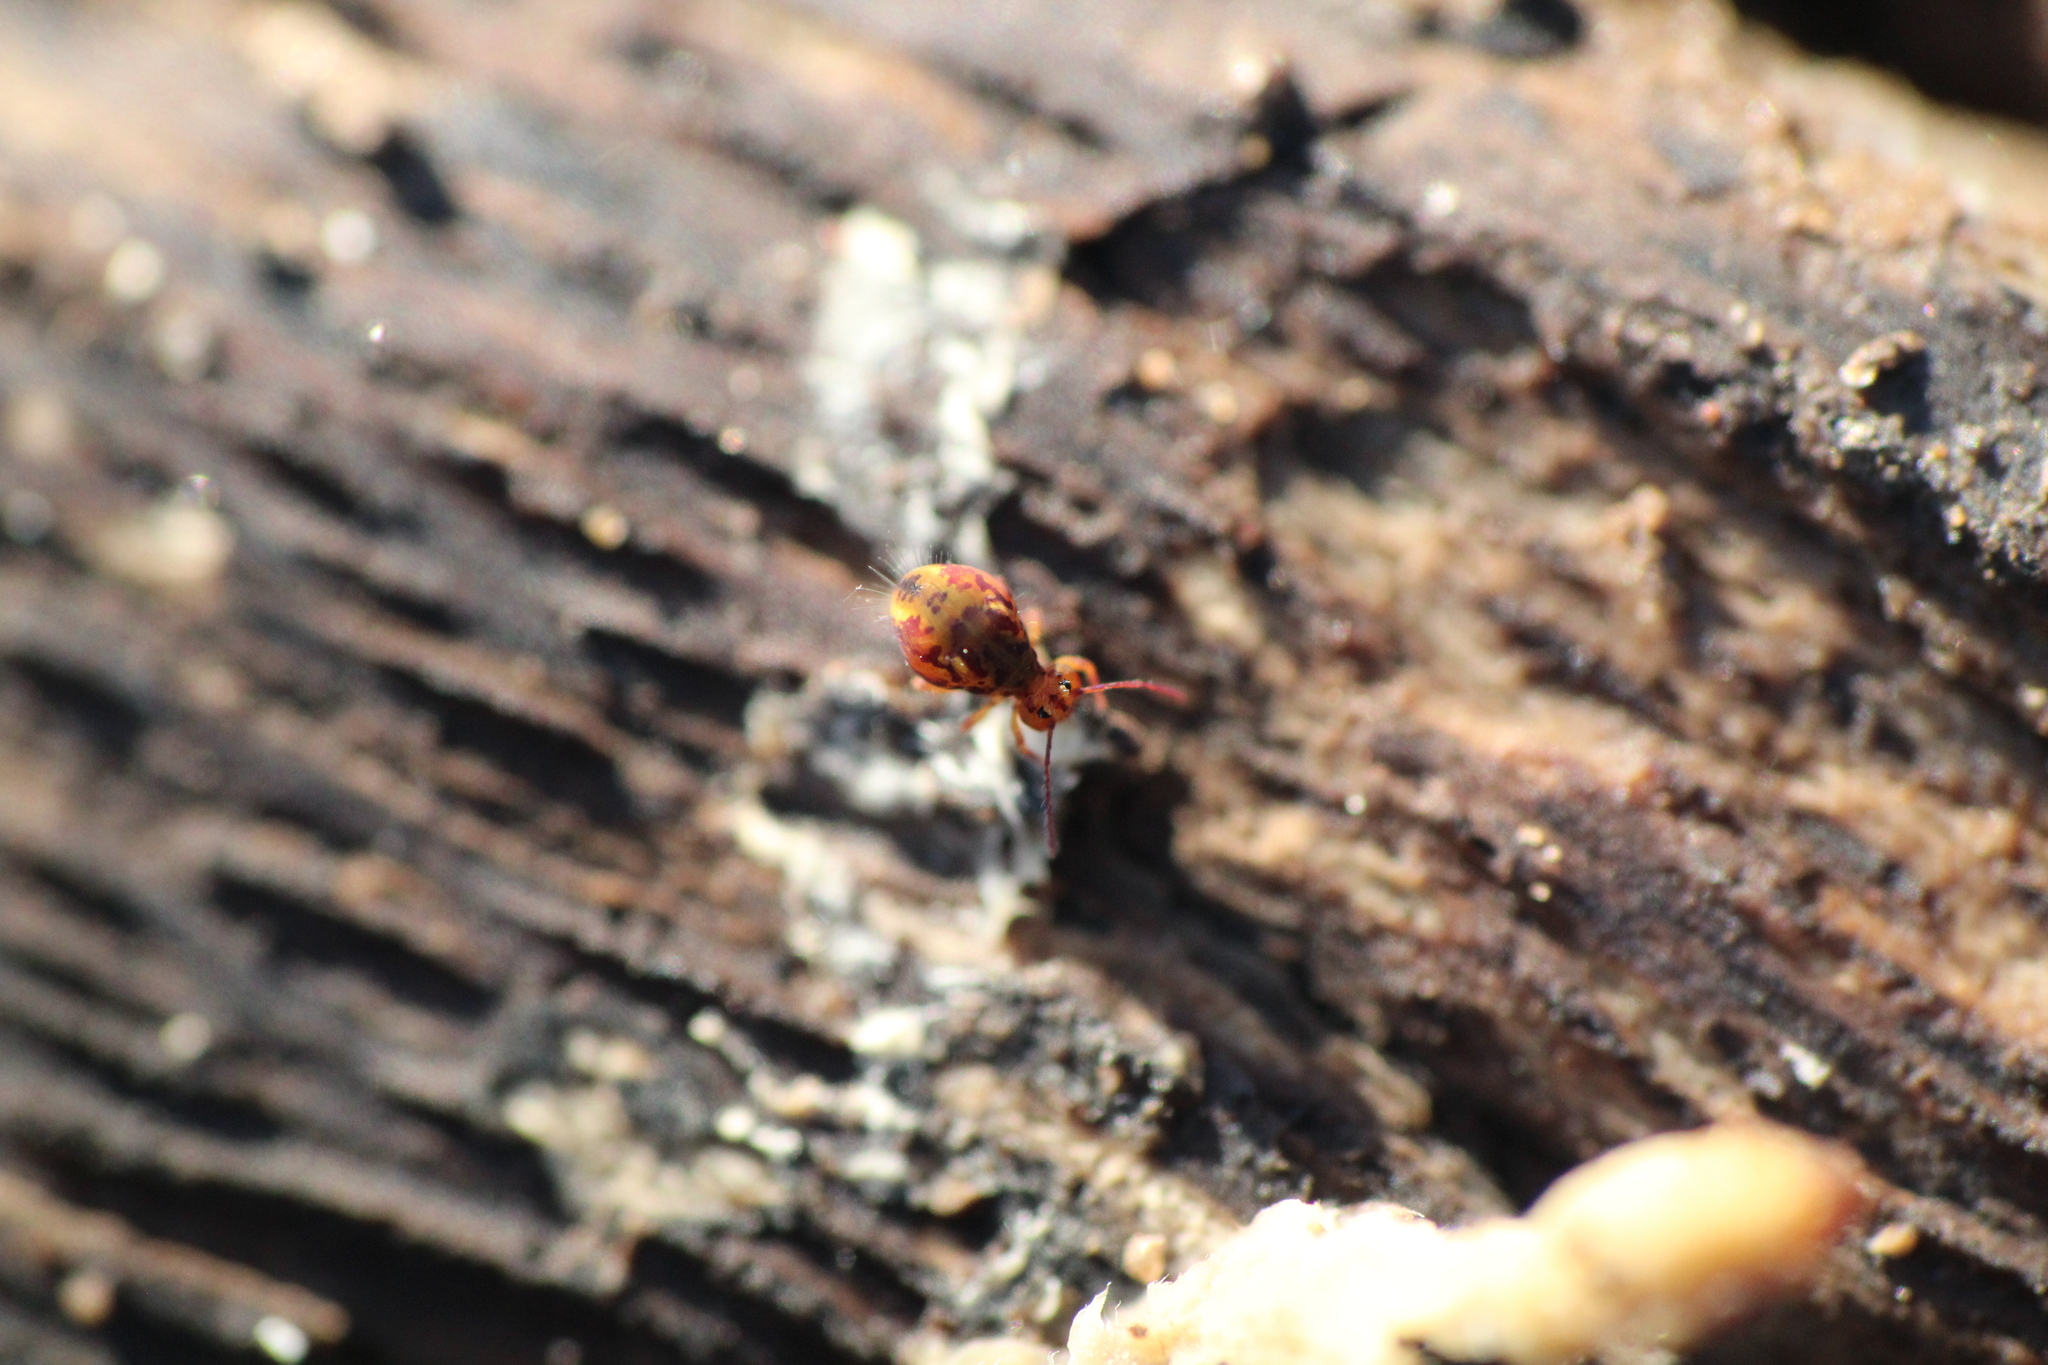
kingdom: Animalia
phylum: Arthropoda
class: Collembola
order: Symphypleona
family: Dicyrtomidae
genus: Dicyrtomina
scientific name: Dicyrtomina ornata
